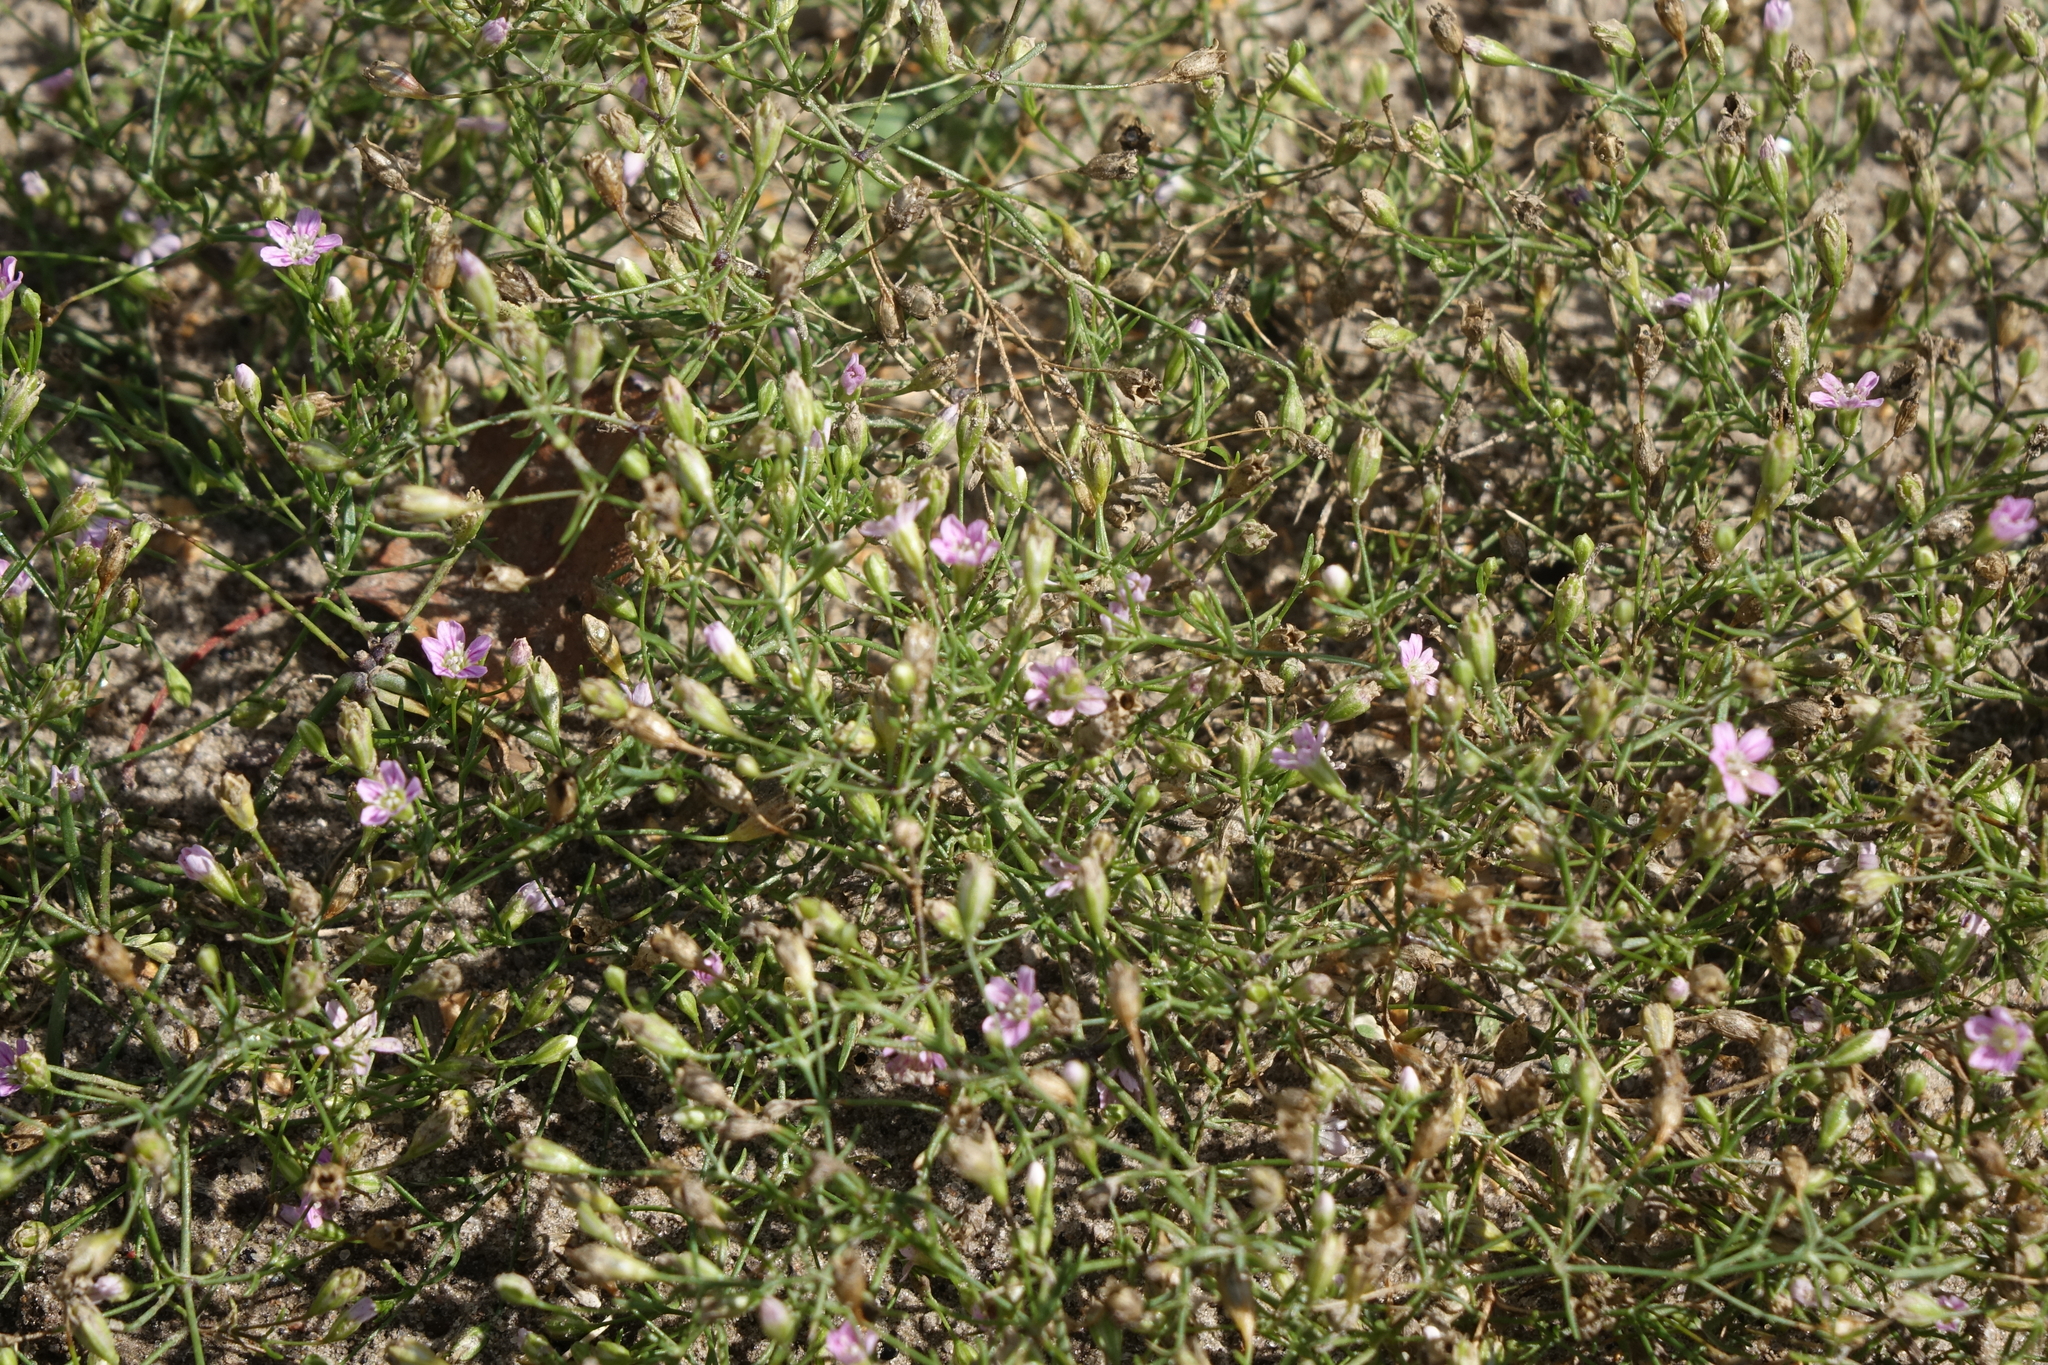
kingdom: Plantae
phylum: Tracheophyta
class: Magnoliopsida
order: Caryophyllales
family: Caryophyllaceae
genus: Psammophiliella
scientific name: Psammophiliella muralis
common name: Cushion baby's-breath
